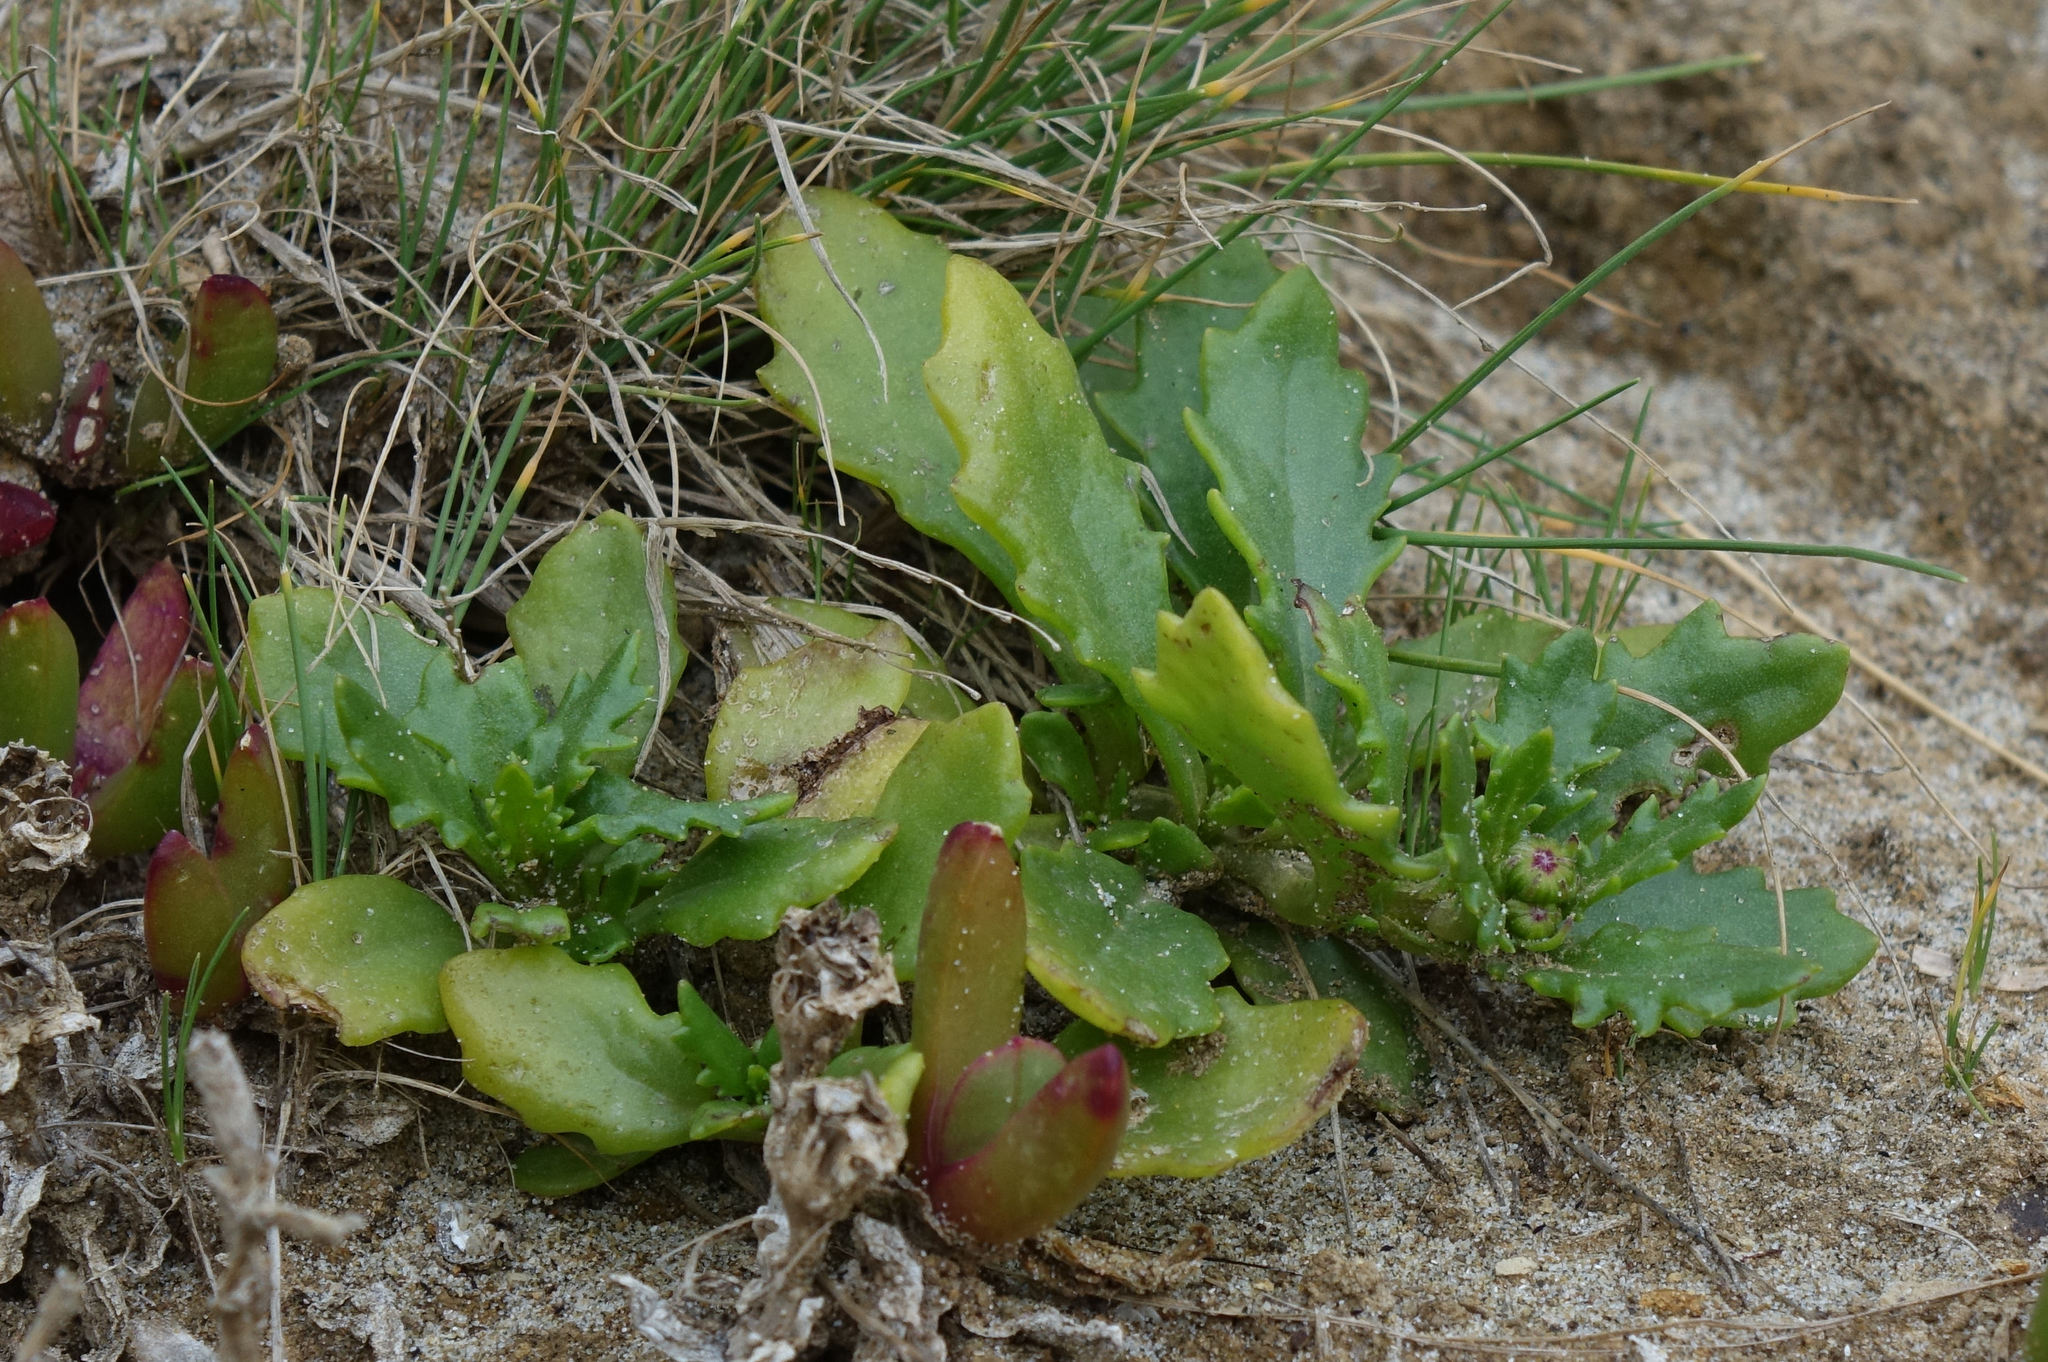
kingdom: Plantae
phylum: Tracheophyta
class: Magnoliopsida
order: Asterales
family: Asteraceae
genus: Senecio
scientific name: Senecio matatini
